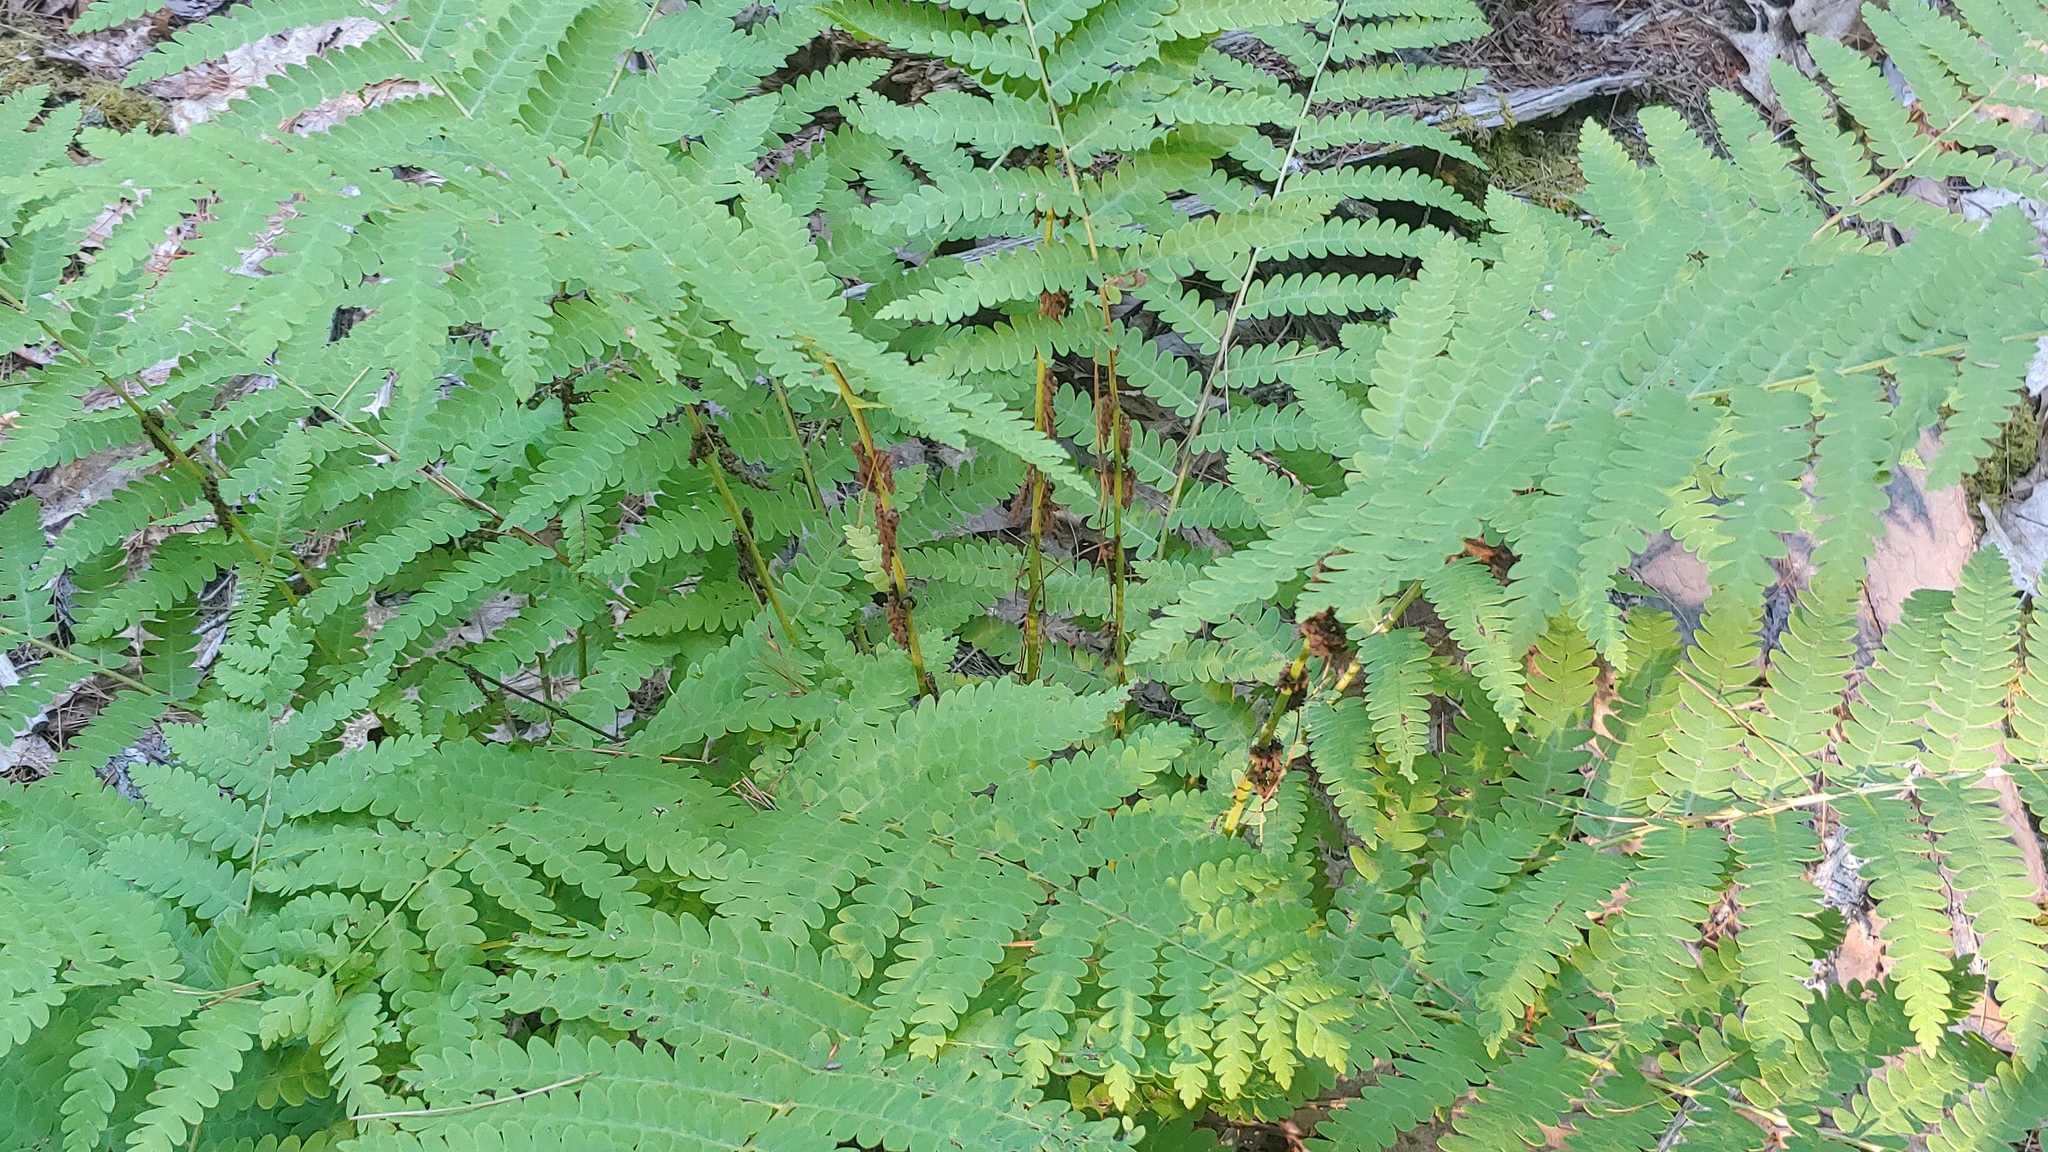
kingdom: Plantae
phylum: Tracheophyta
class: Polypodiopsida
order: Osmundales
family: Osmundaceae
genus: Claytosmunda
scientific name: Claytosmunda claytoniana
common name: Clayton's fern
